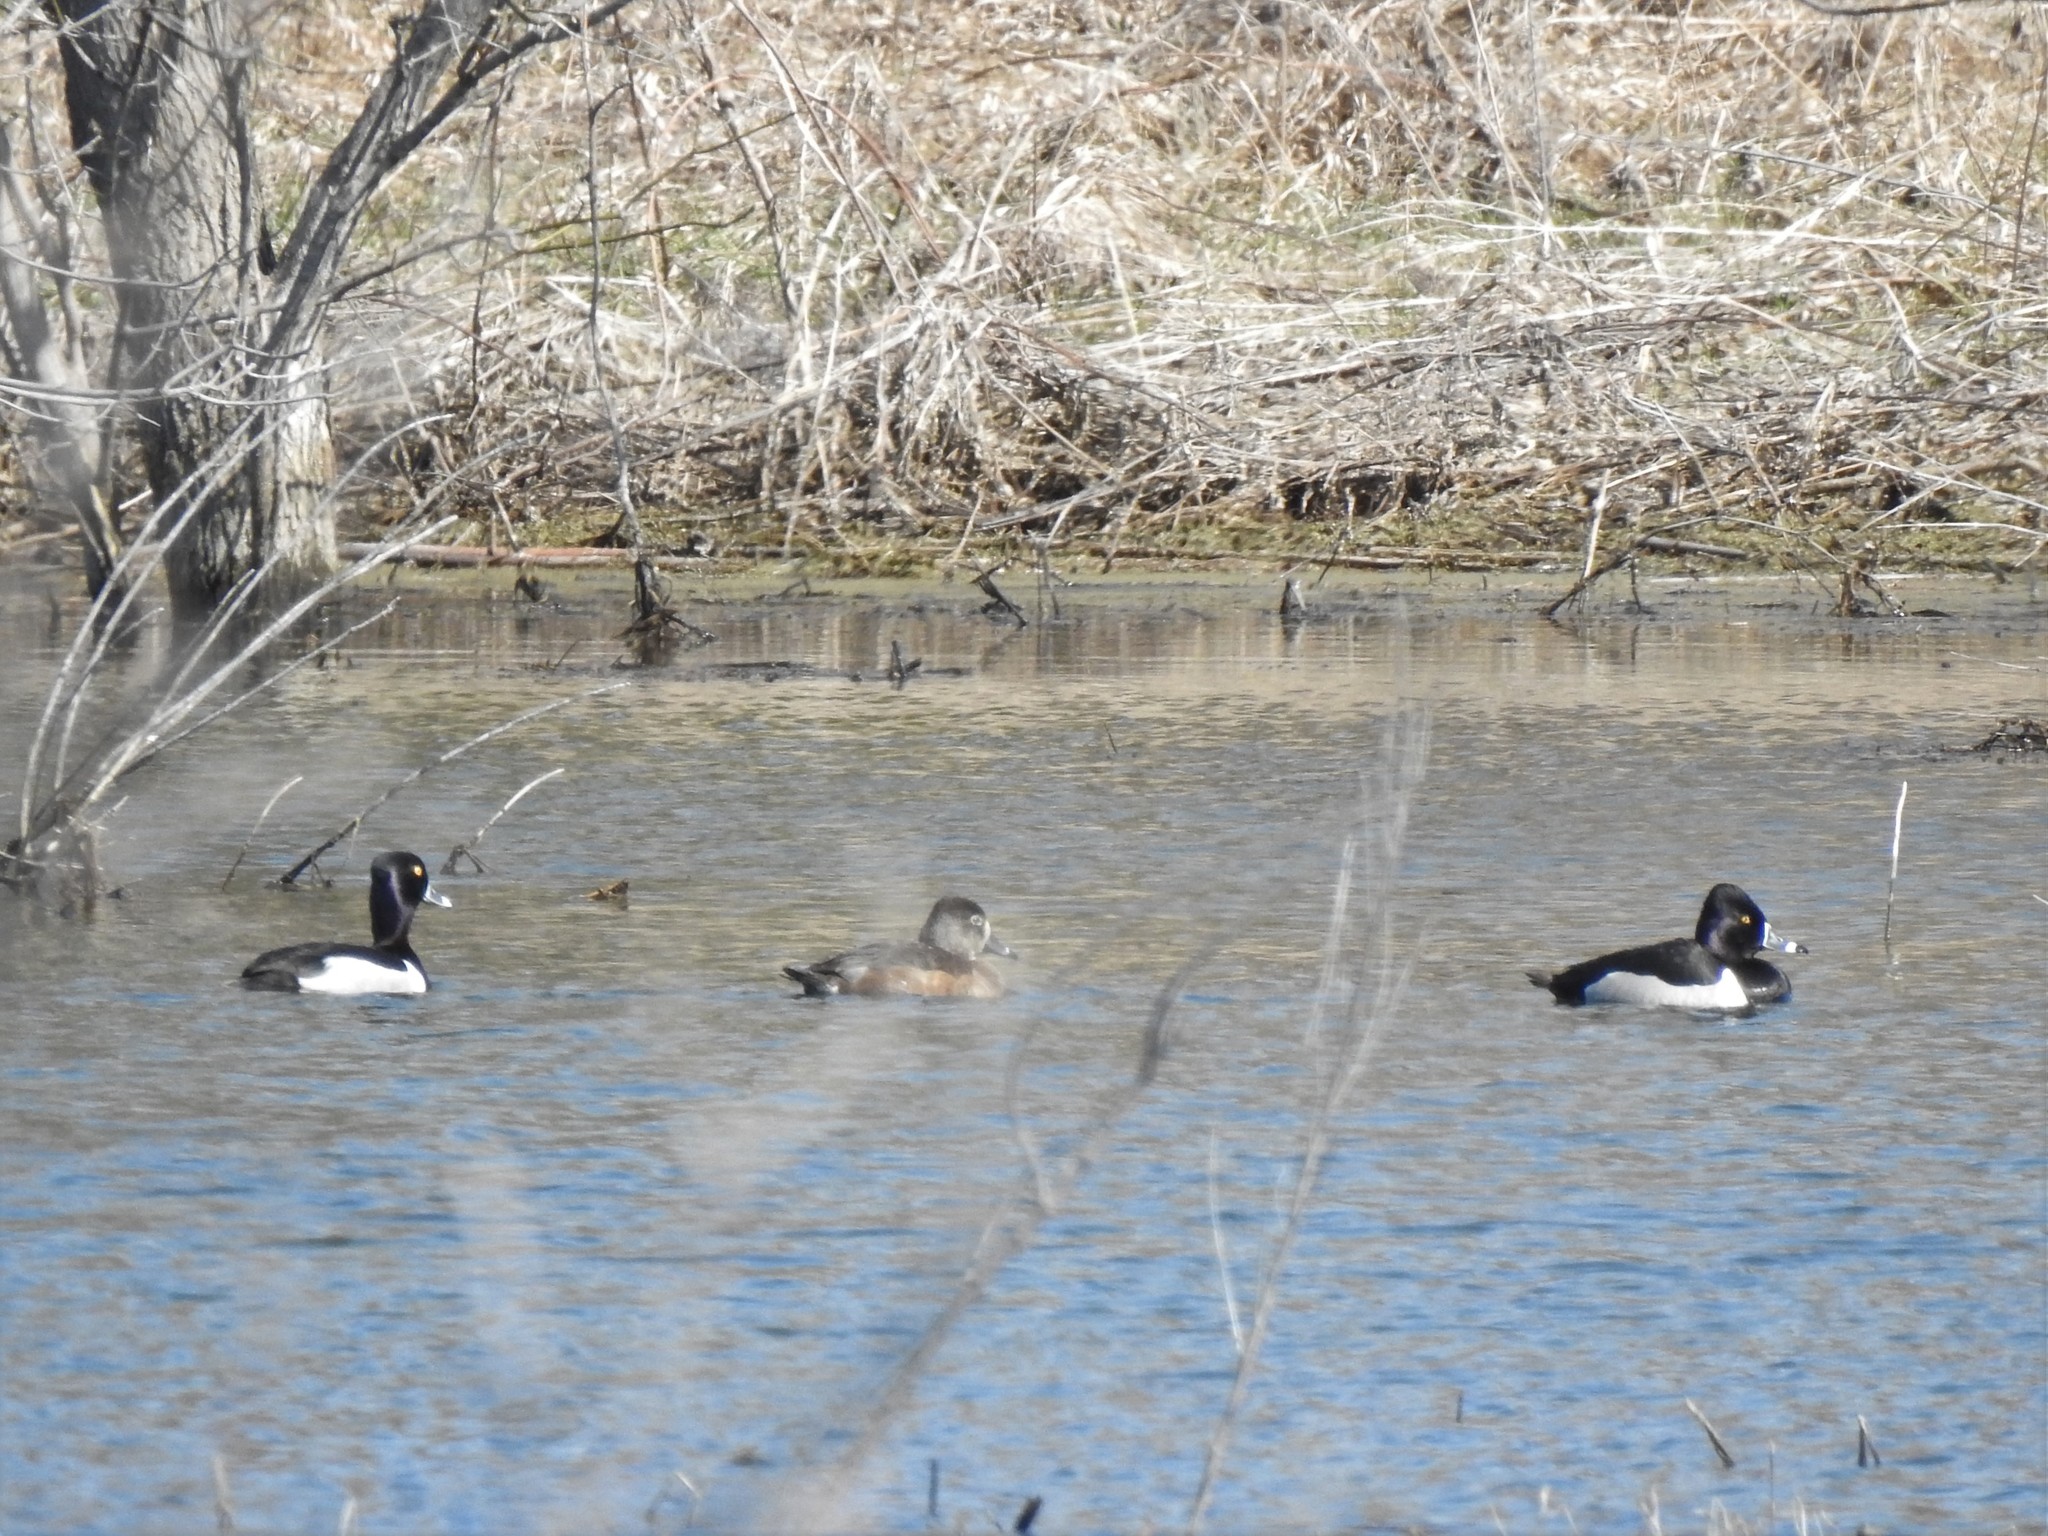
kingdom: Animalia
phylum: Chordata
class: Aves
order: Anseriformes
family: Anatidae
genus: Aythya
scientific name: Aythya collaris
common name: Ring-necked duck
